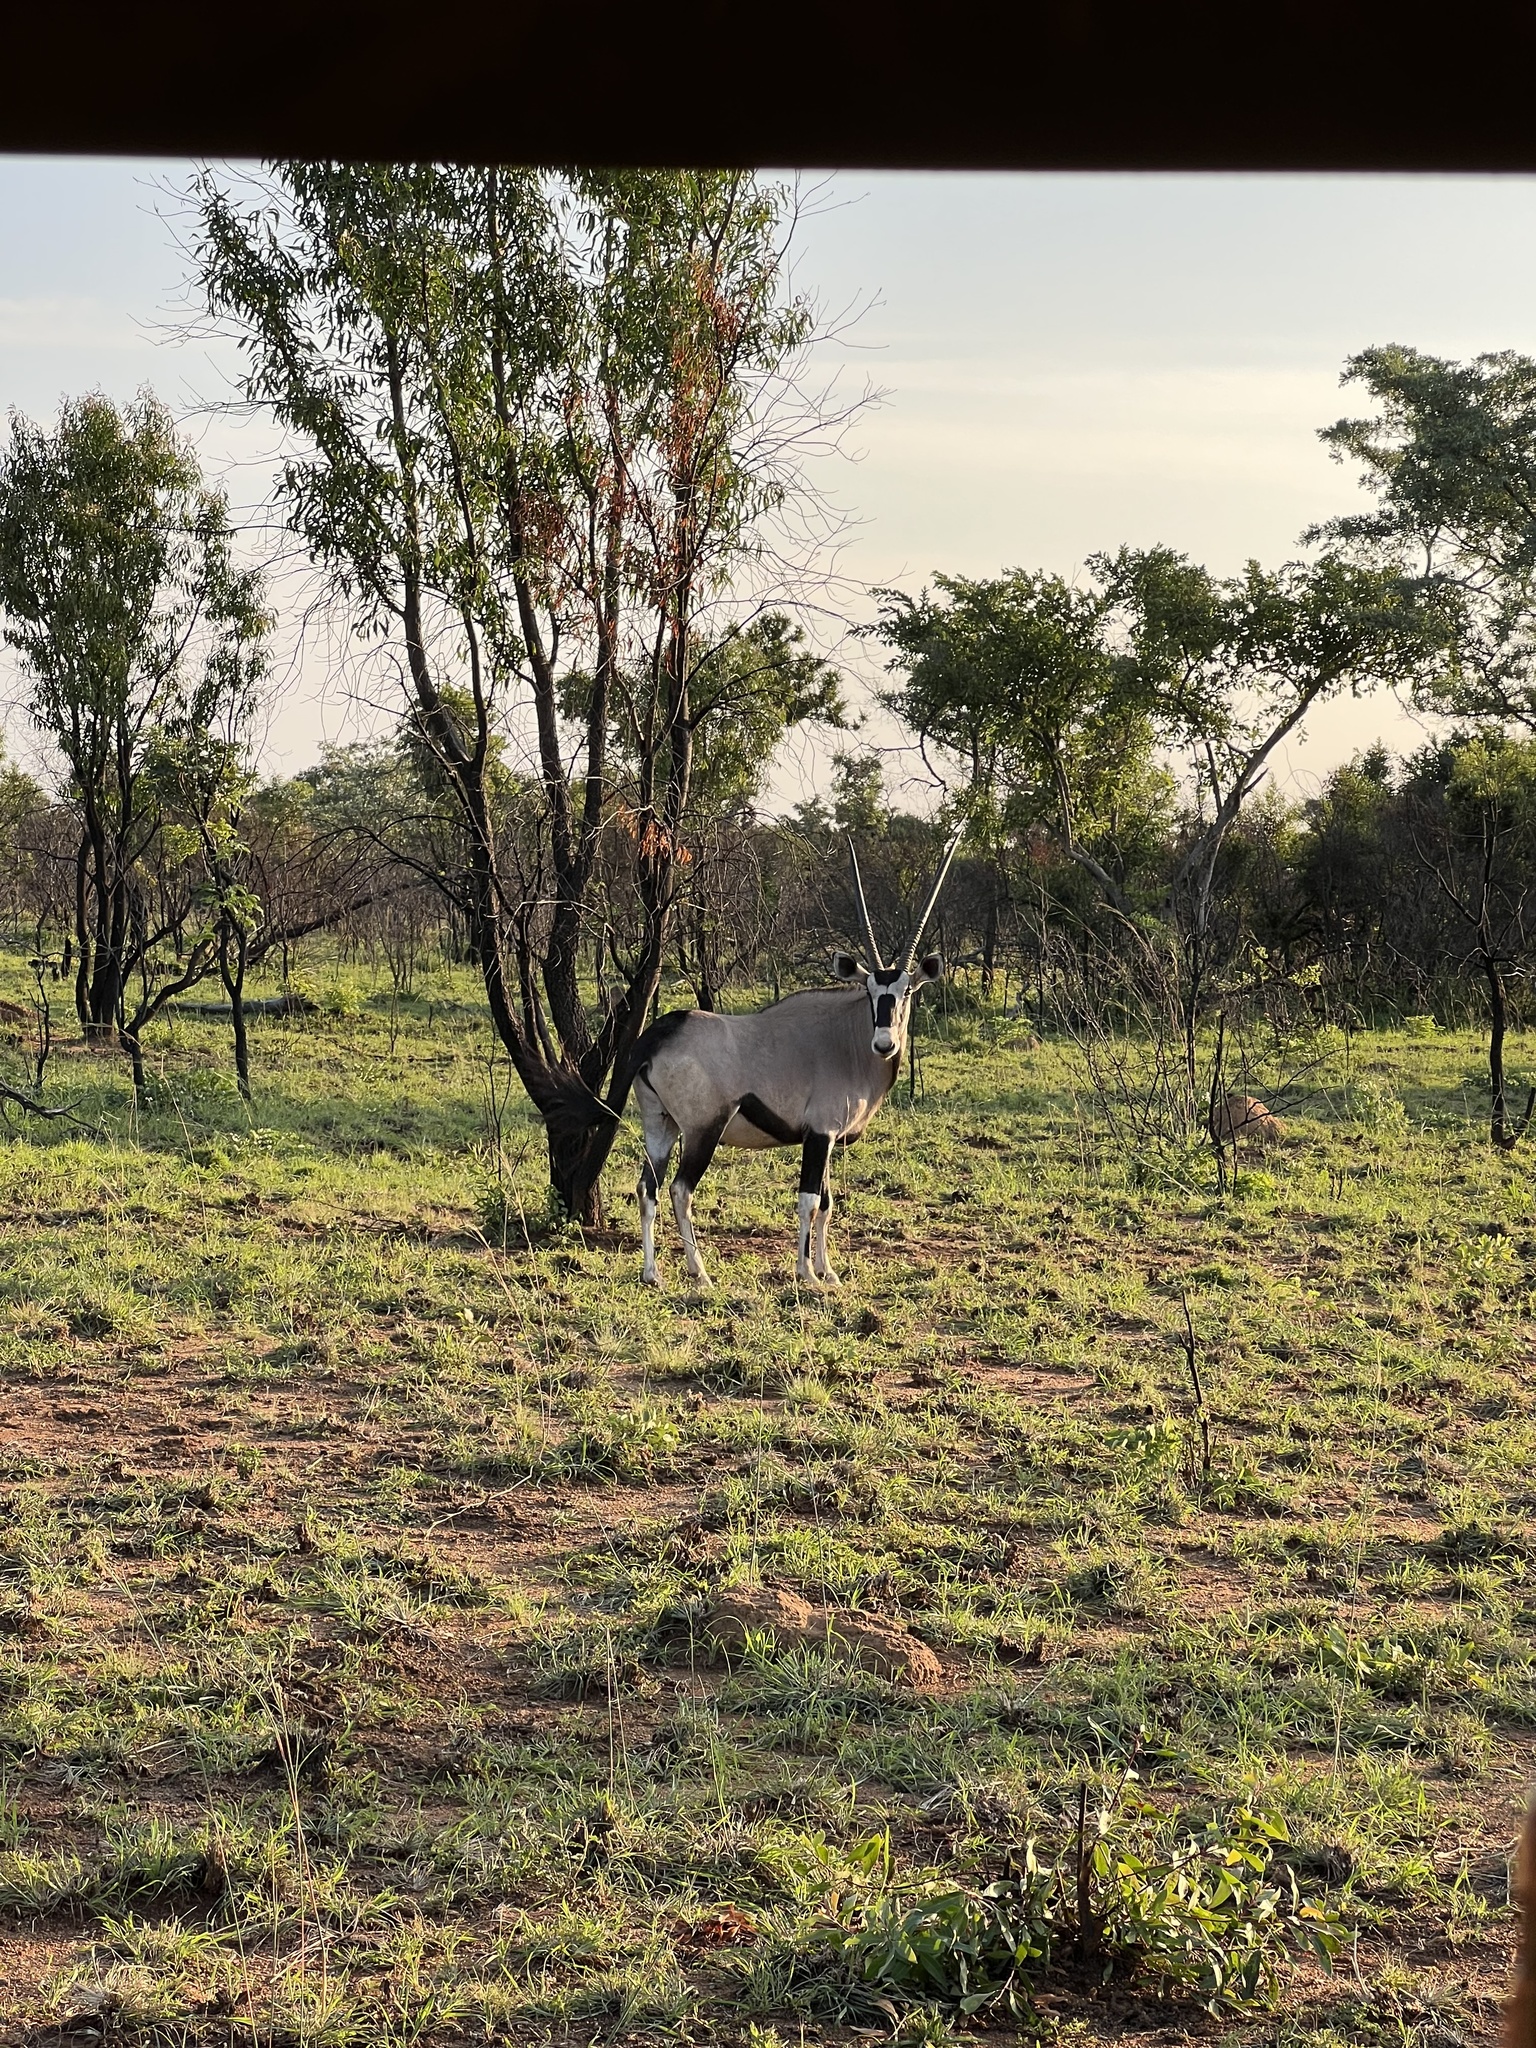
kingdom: Animalia
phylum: Chordata
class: Mammalia
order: Artiodactyla
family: Bovidae
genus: Oryx
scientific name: Oryx gazella
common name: Gemsbok
